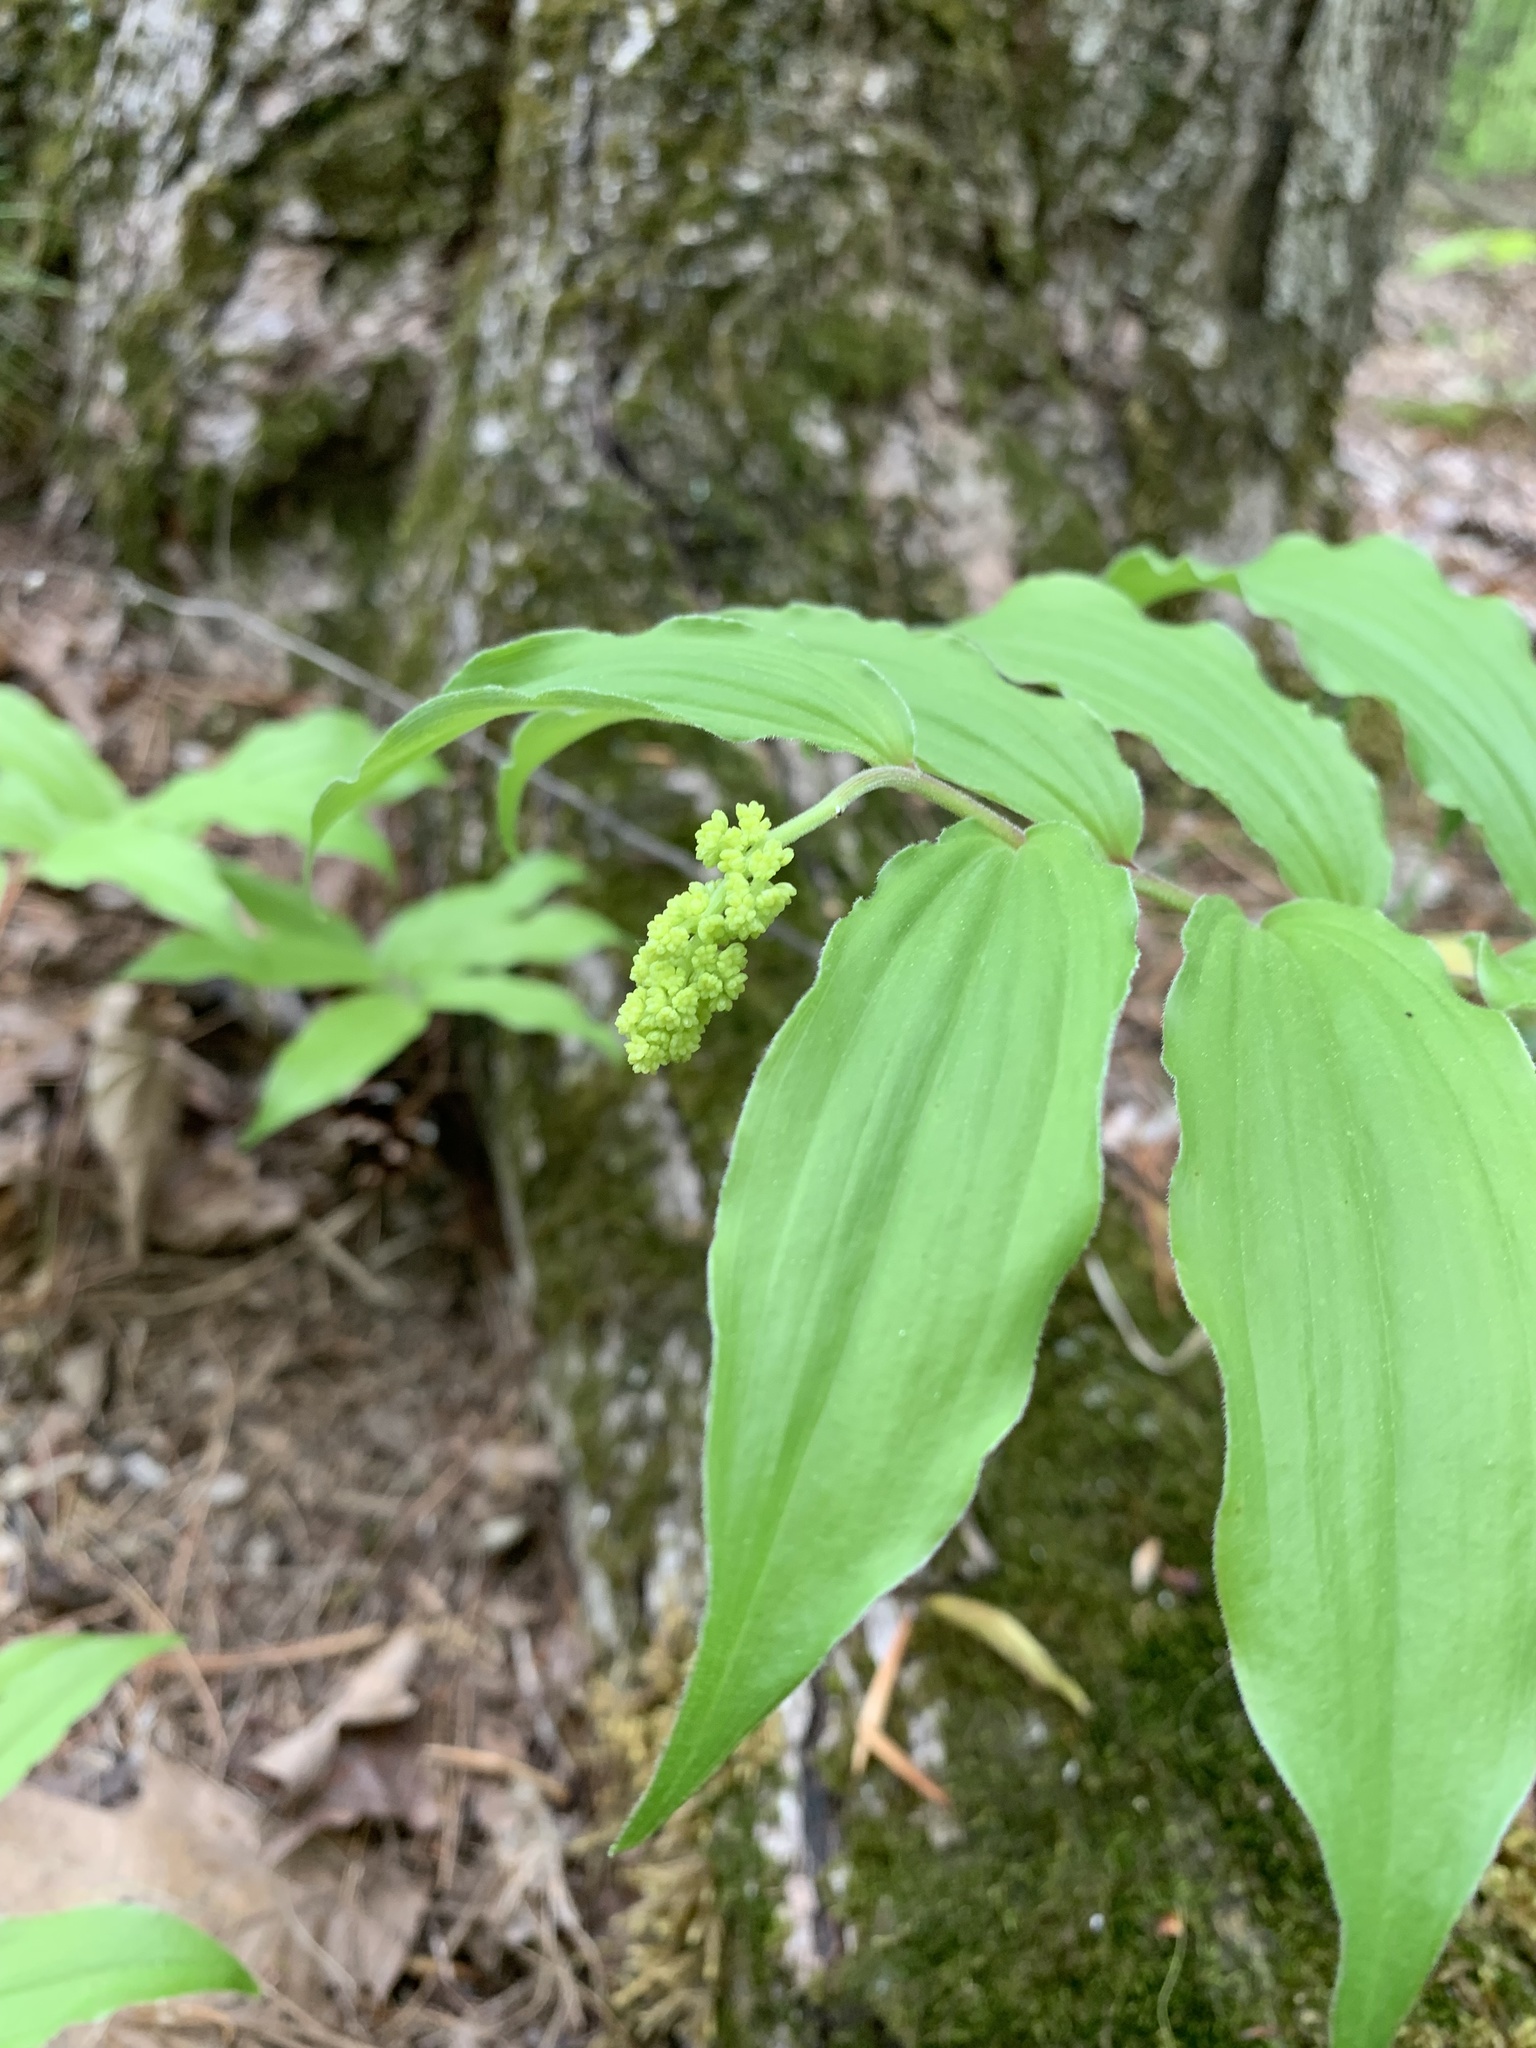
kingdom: Plantae
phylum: Tracheophyta
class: Liliopsida
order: Asparagales
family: Asparagaceae
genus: Maianthemum
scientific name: Maianthemum racemosum
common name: False spikenard
